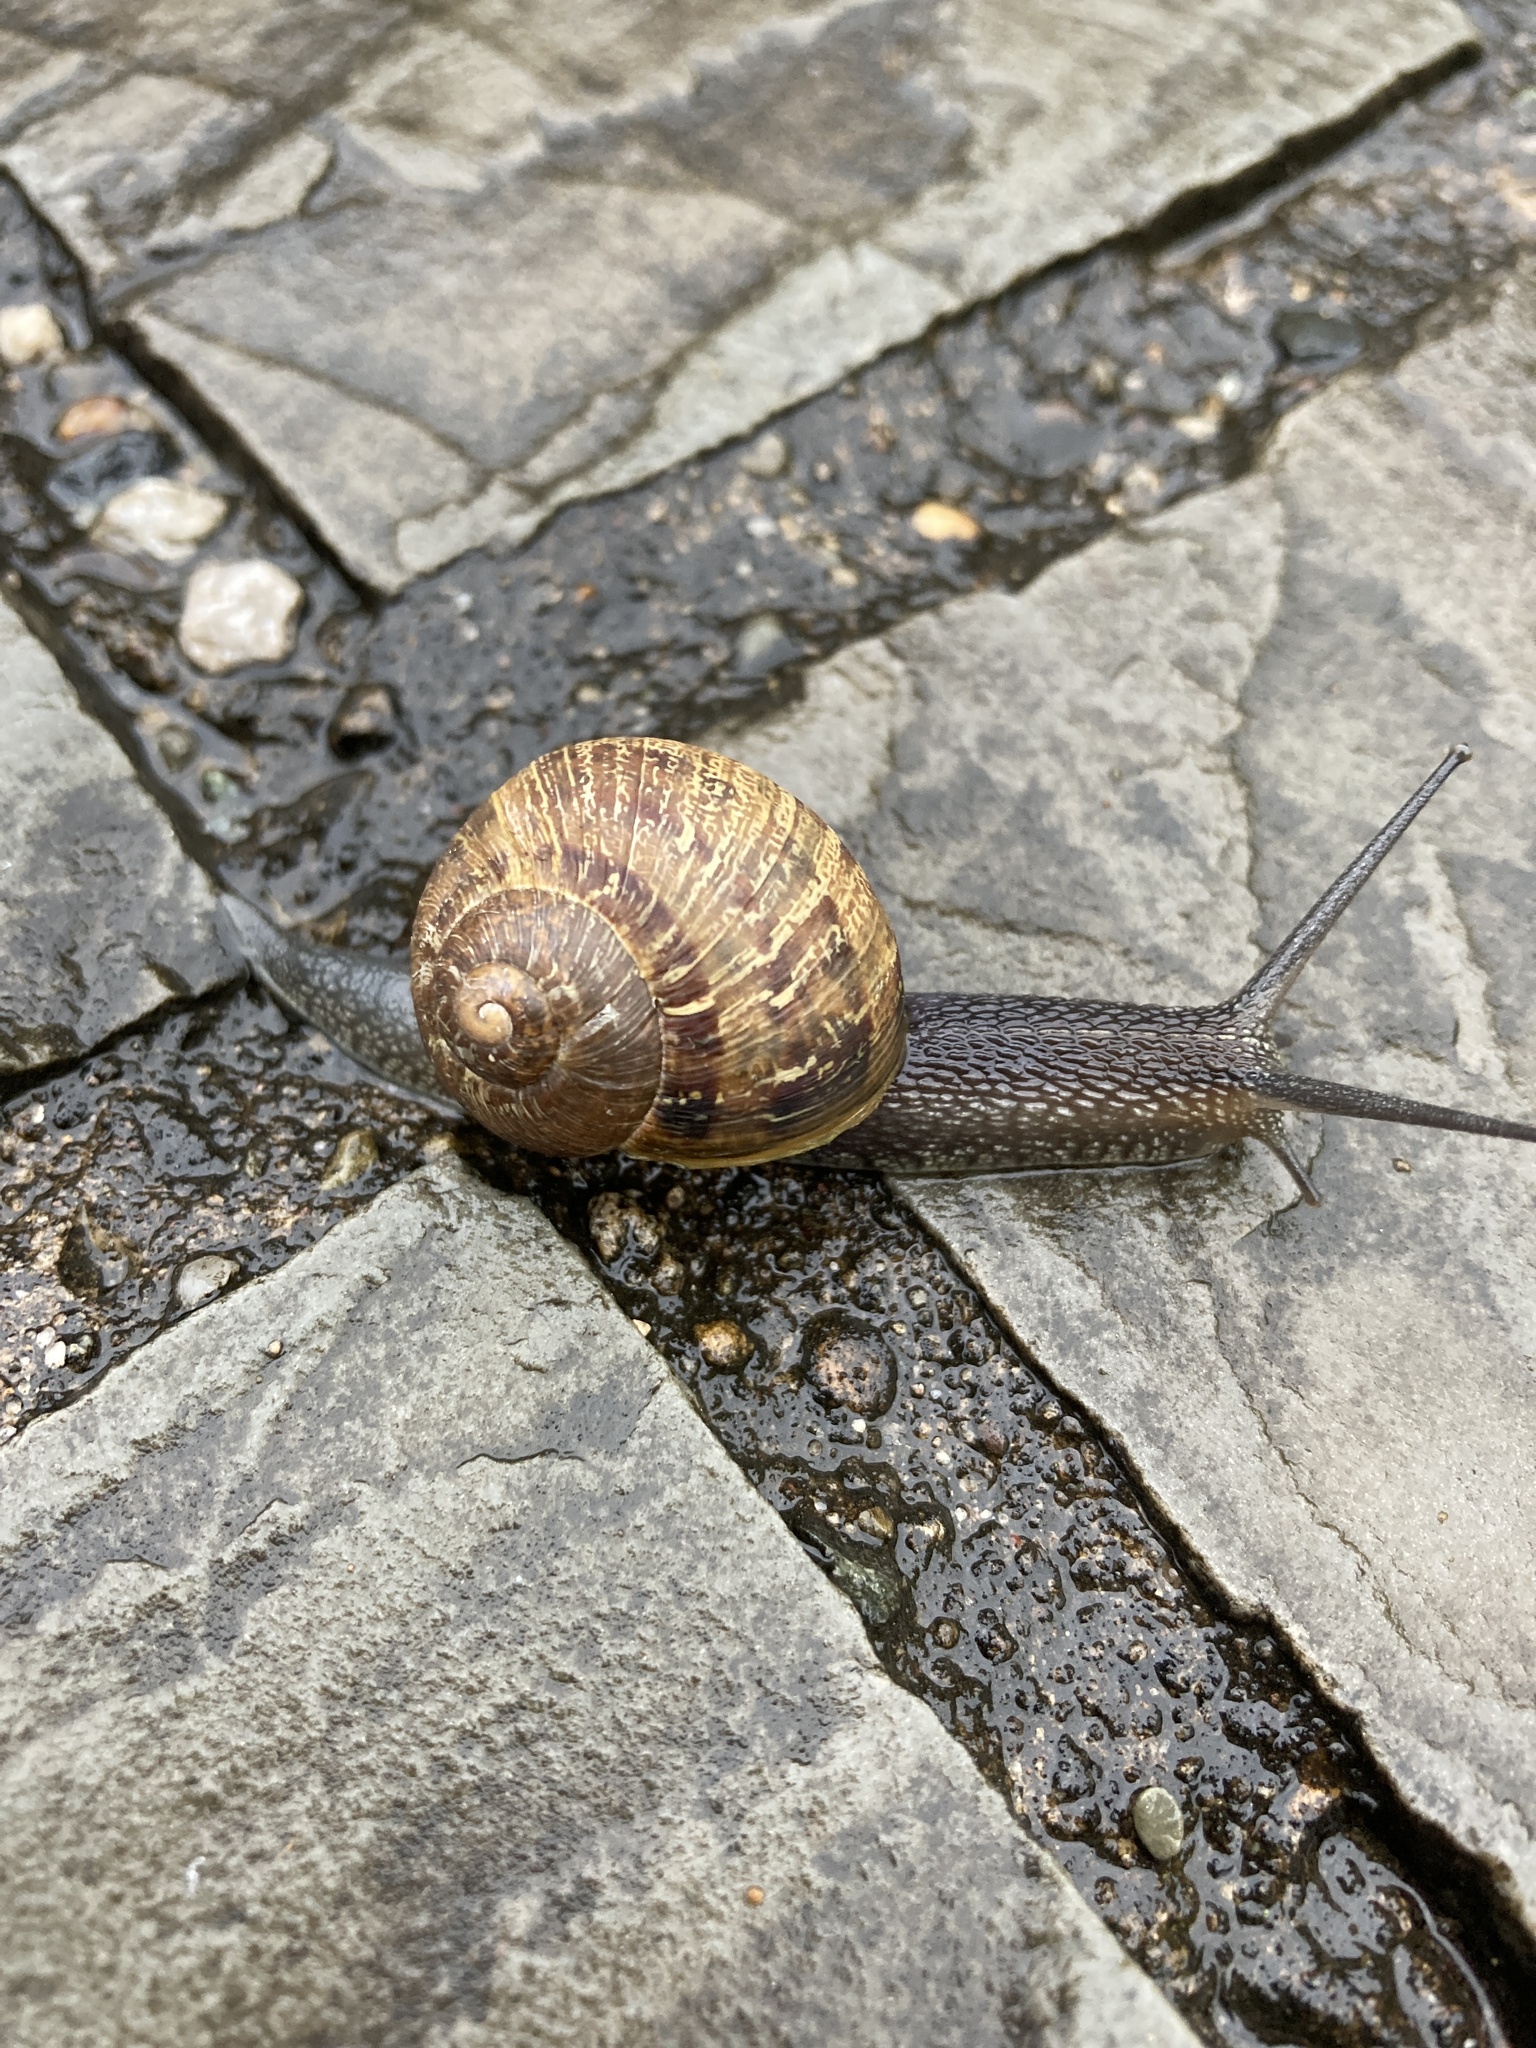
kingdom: Animalia
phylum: Mollusca
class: Gastropoda
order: Stylommatophora
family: Helicidae
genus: Cornu
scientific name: Cornu aspersum
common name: Brown garden snail
